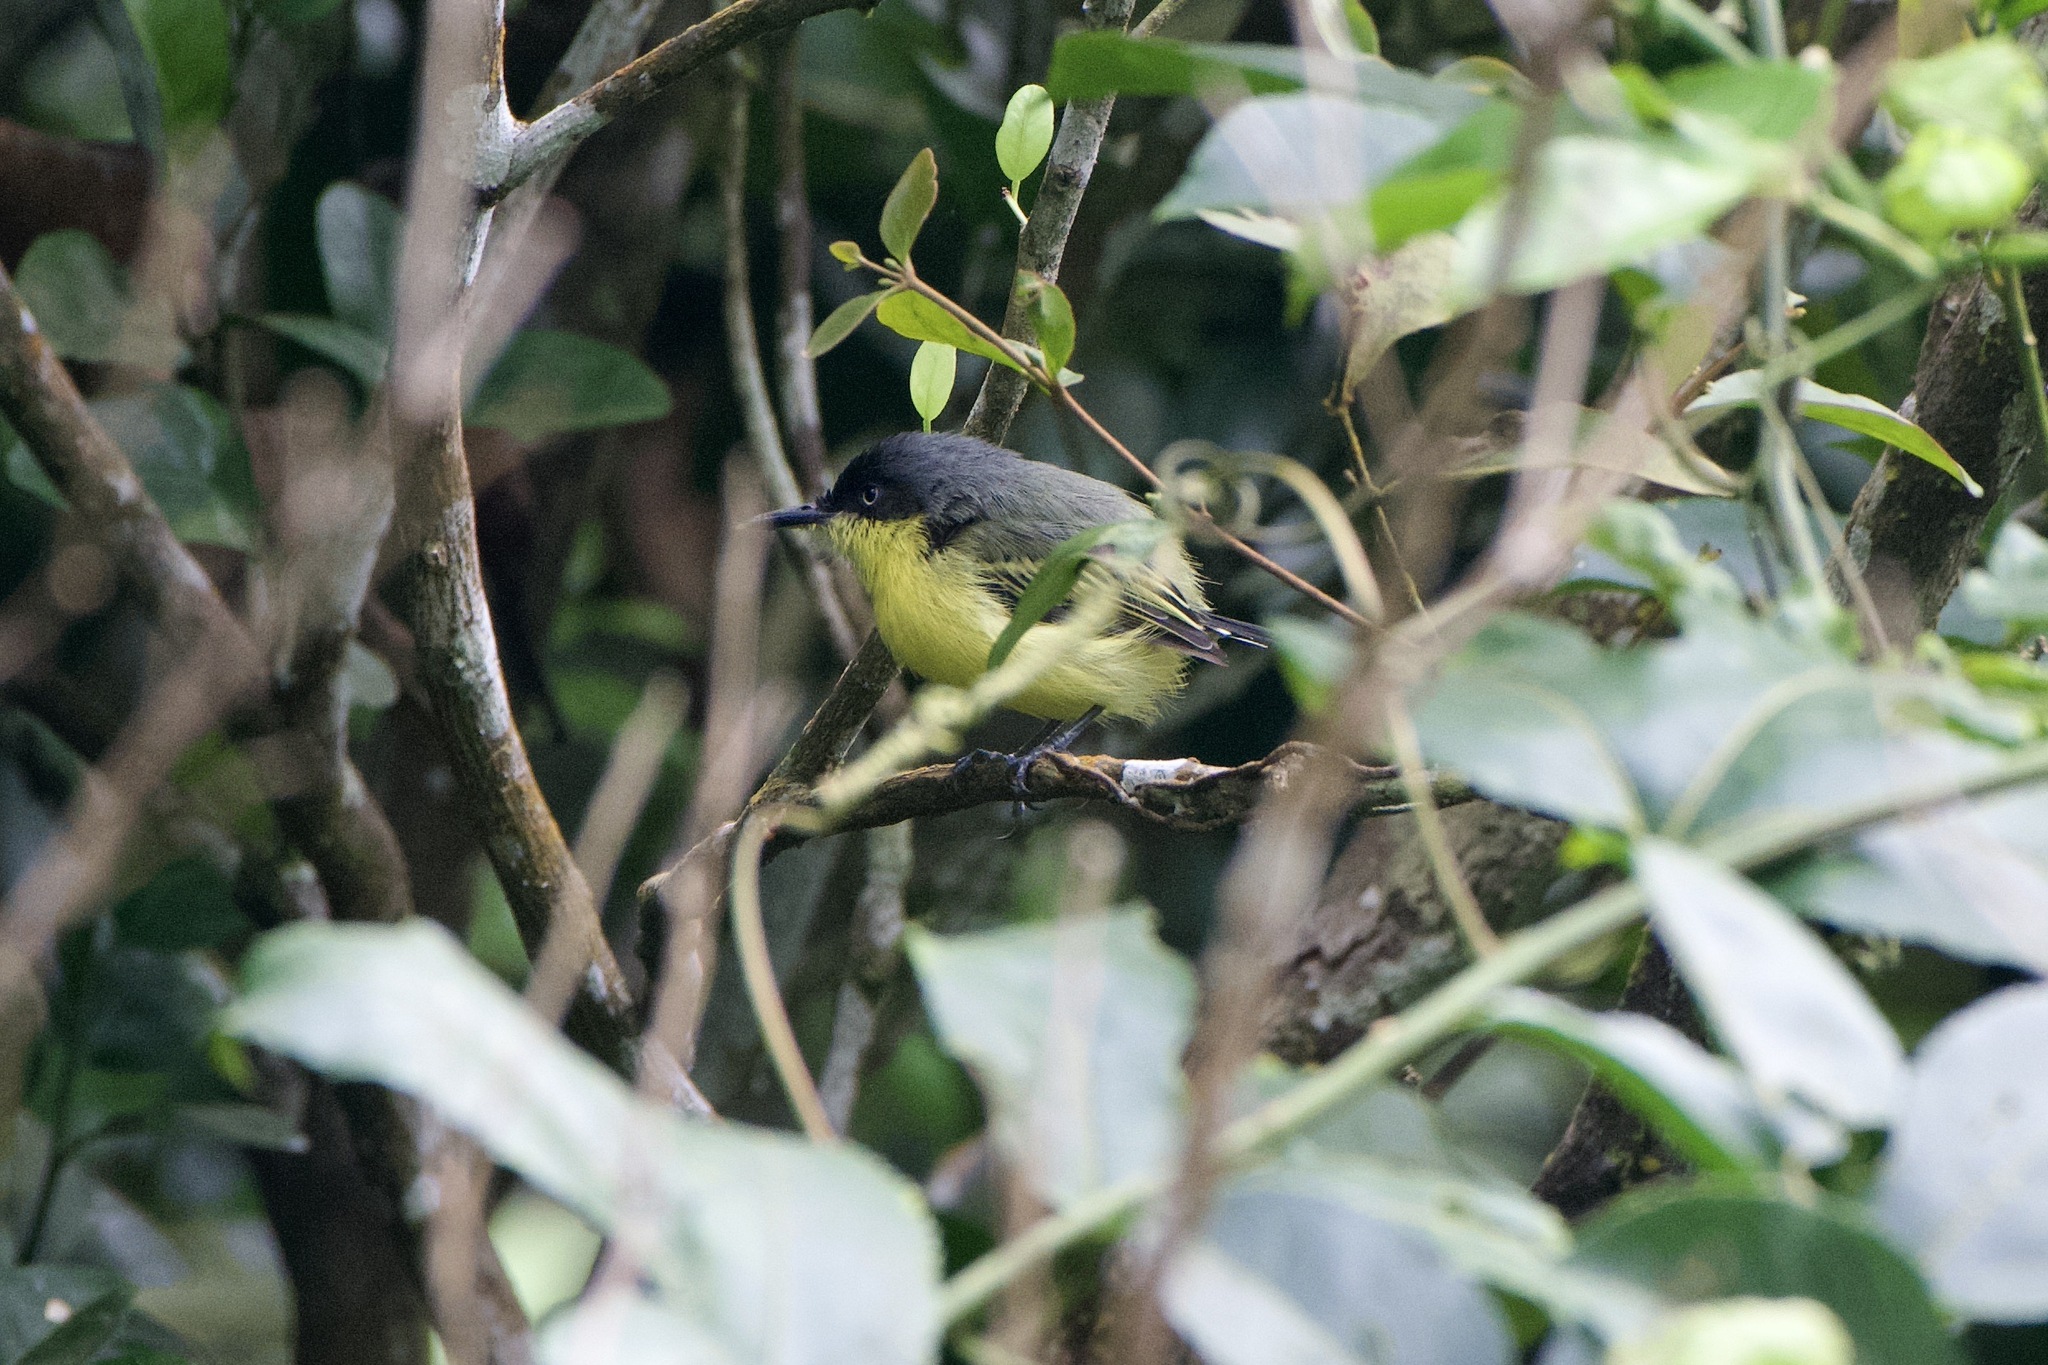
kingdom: Animalia
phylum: Chordata
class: Aves
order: Passeriformes
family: Tyrannidae
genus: Todirostrum
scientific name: Todirostrum cinereum
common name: Common tody-flycatcher
